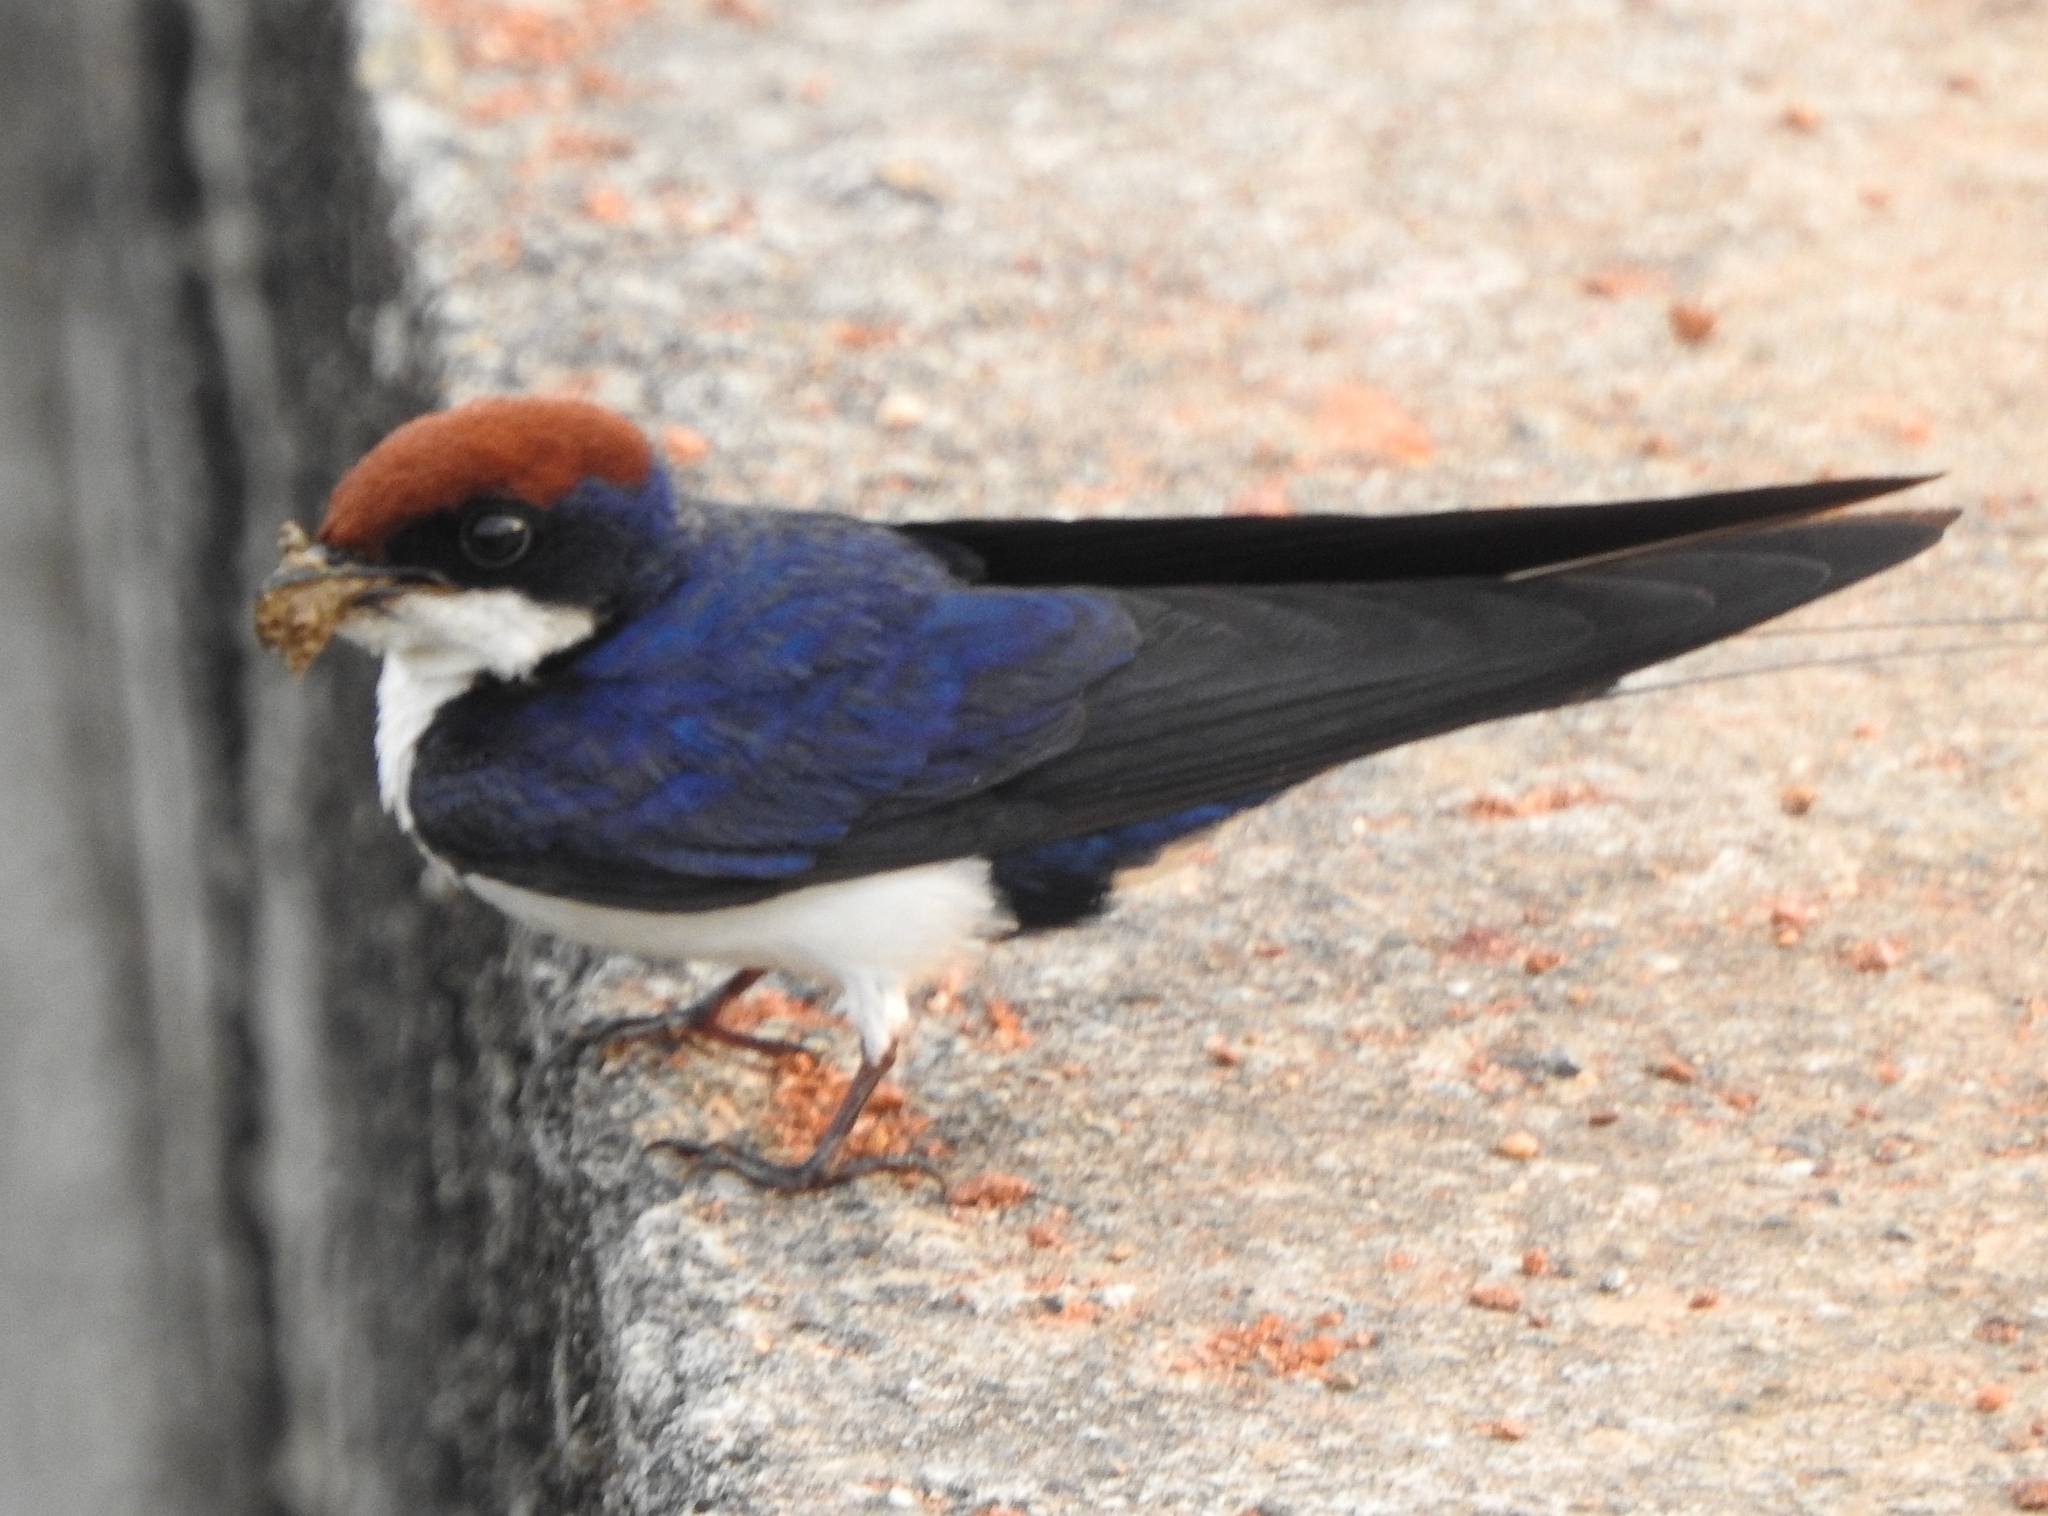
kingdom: Animalia
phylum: Chordata
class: Aves
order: Passeriformes
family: Hirundinidae
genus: Hirundo
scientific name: Hirundo smithii
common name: Wire-tailed swallow
